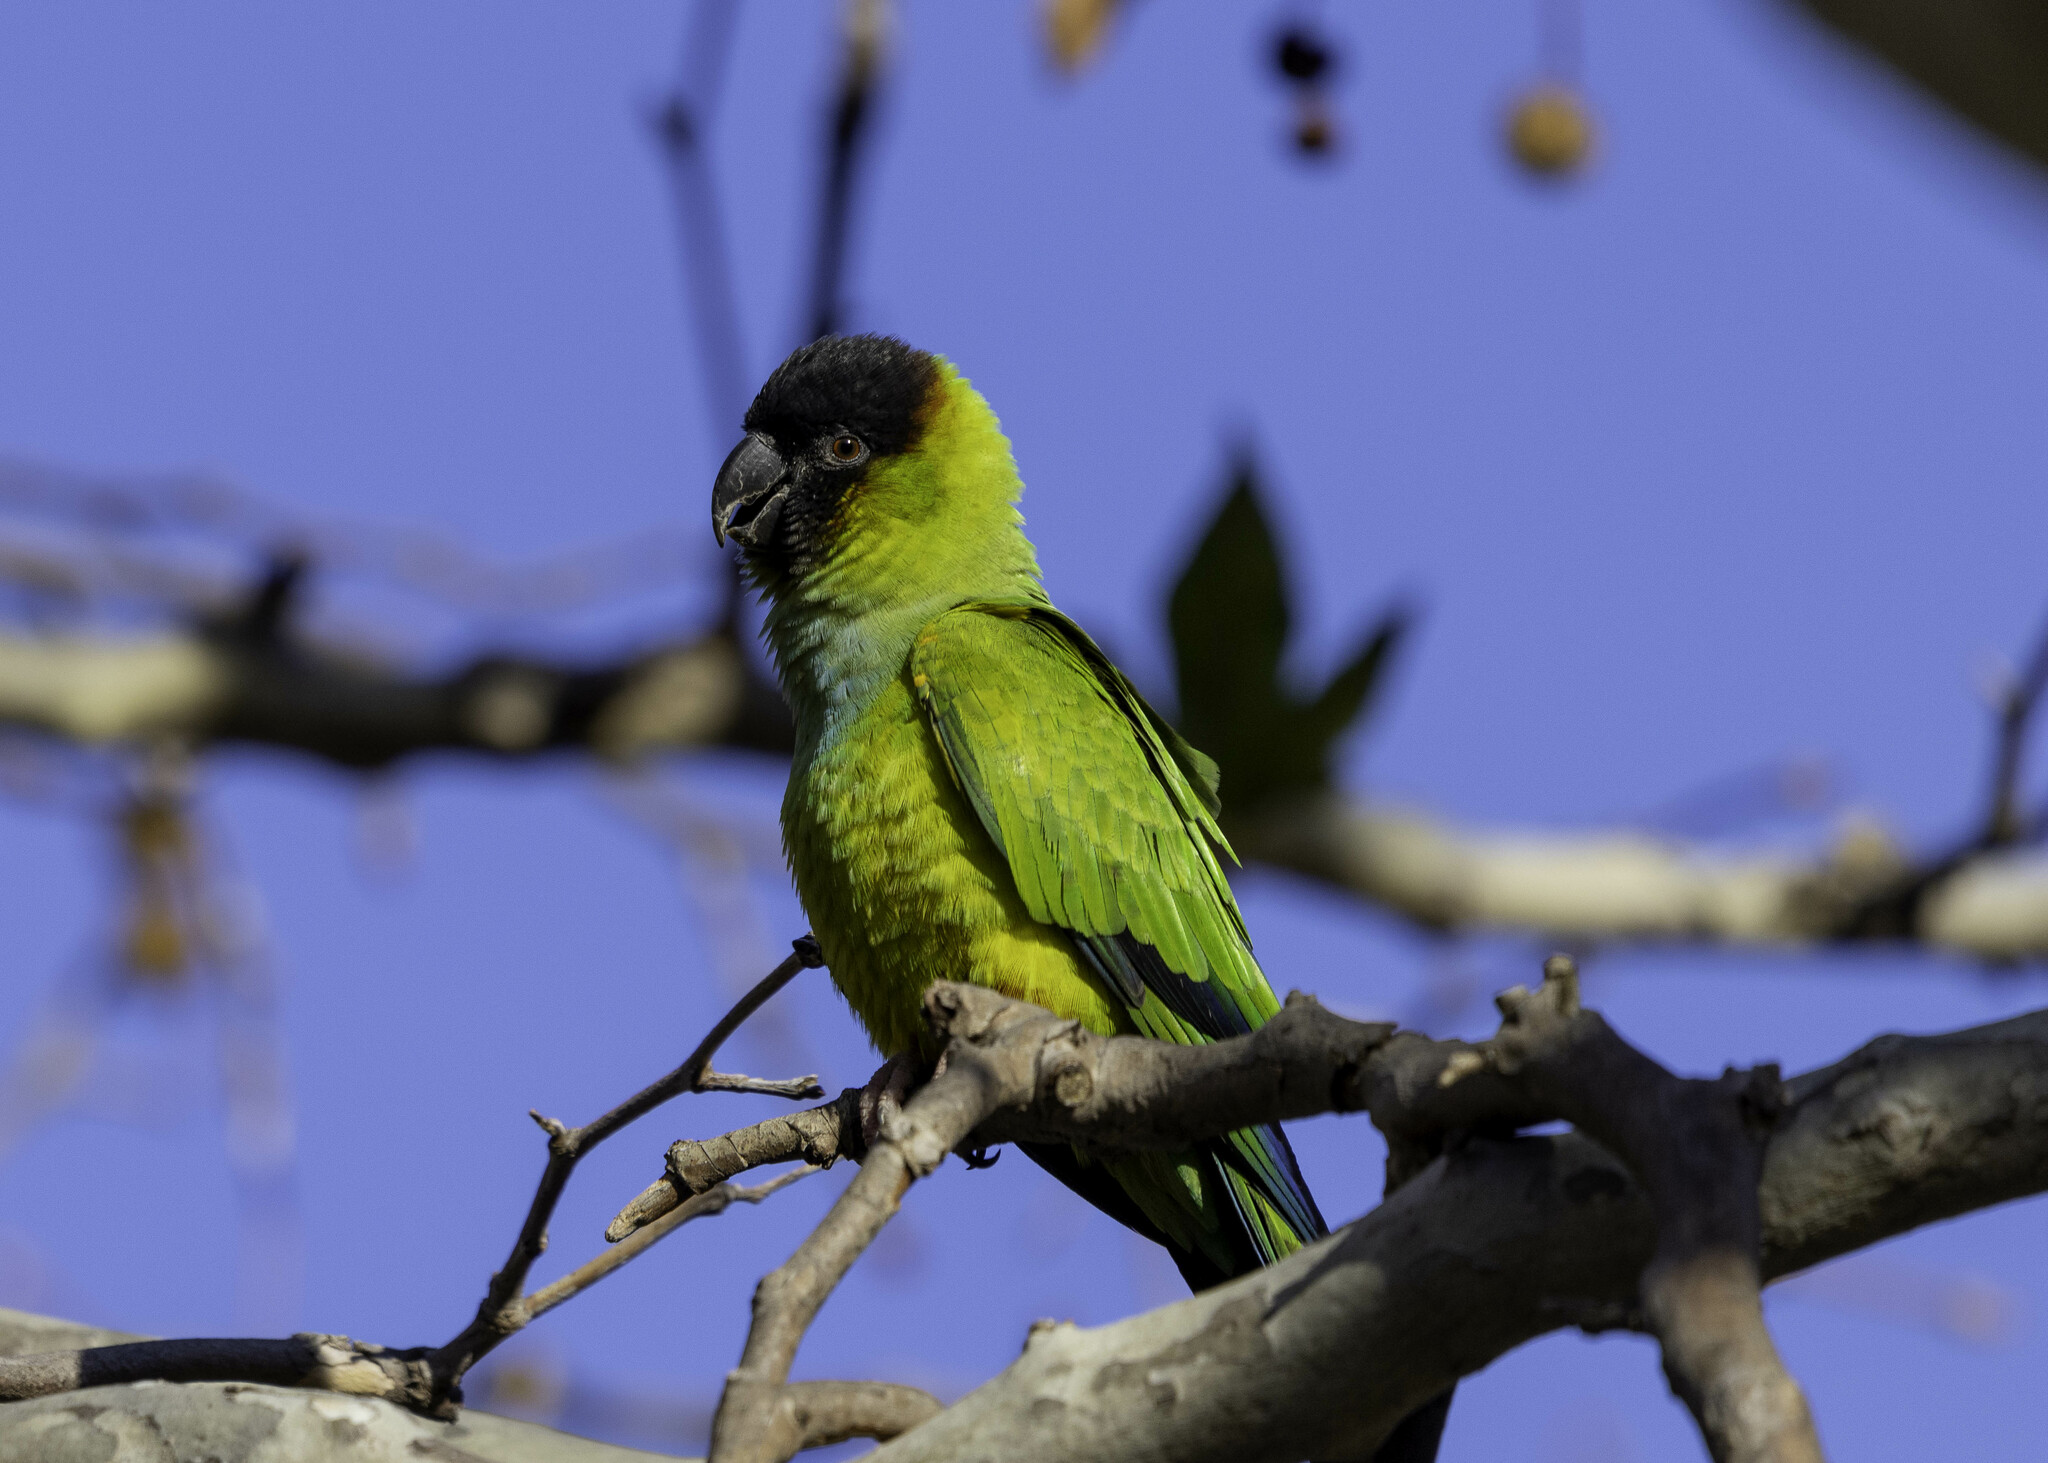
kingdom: Animalia
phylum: Chordata
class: Aves
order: Psittaciformes
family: Psittacidae
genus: Nandayus
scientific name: Nandayus nenday
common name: Nanday parakeet
